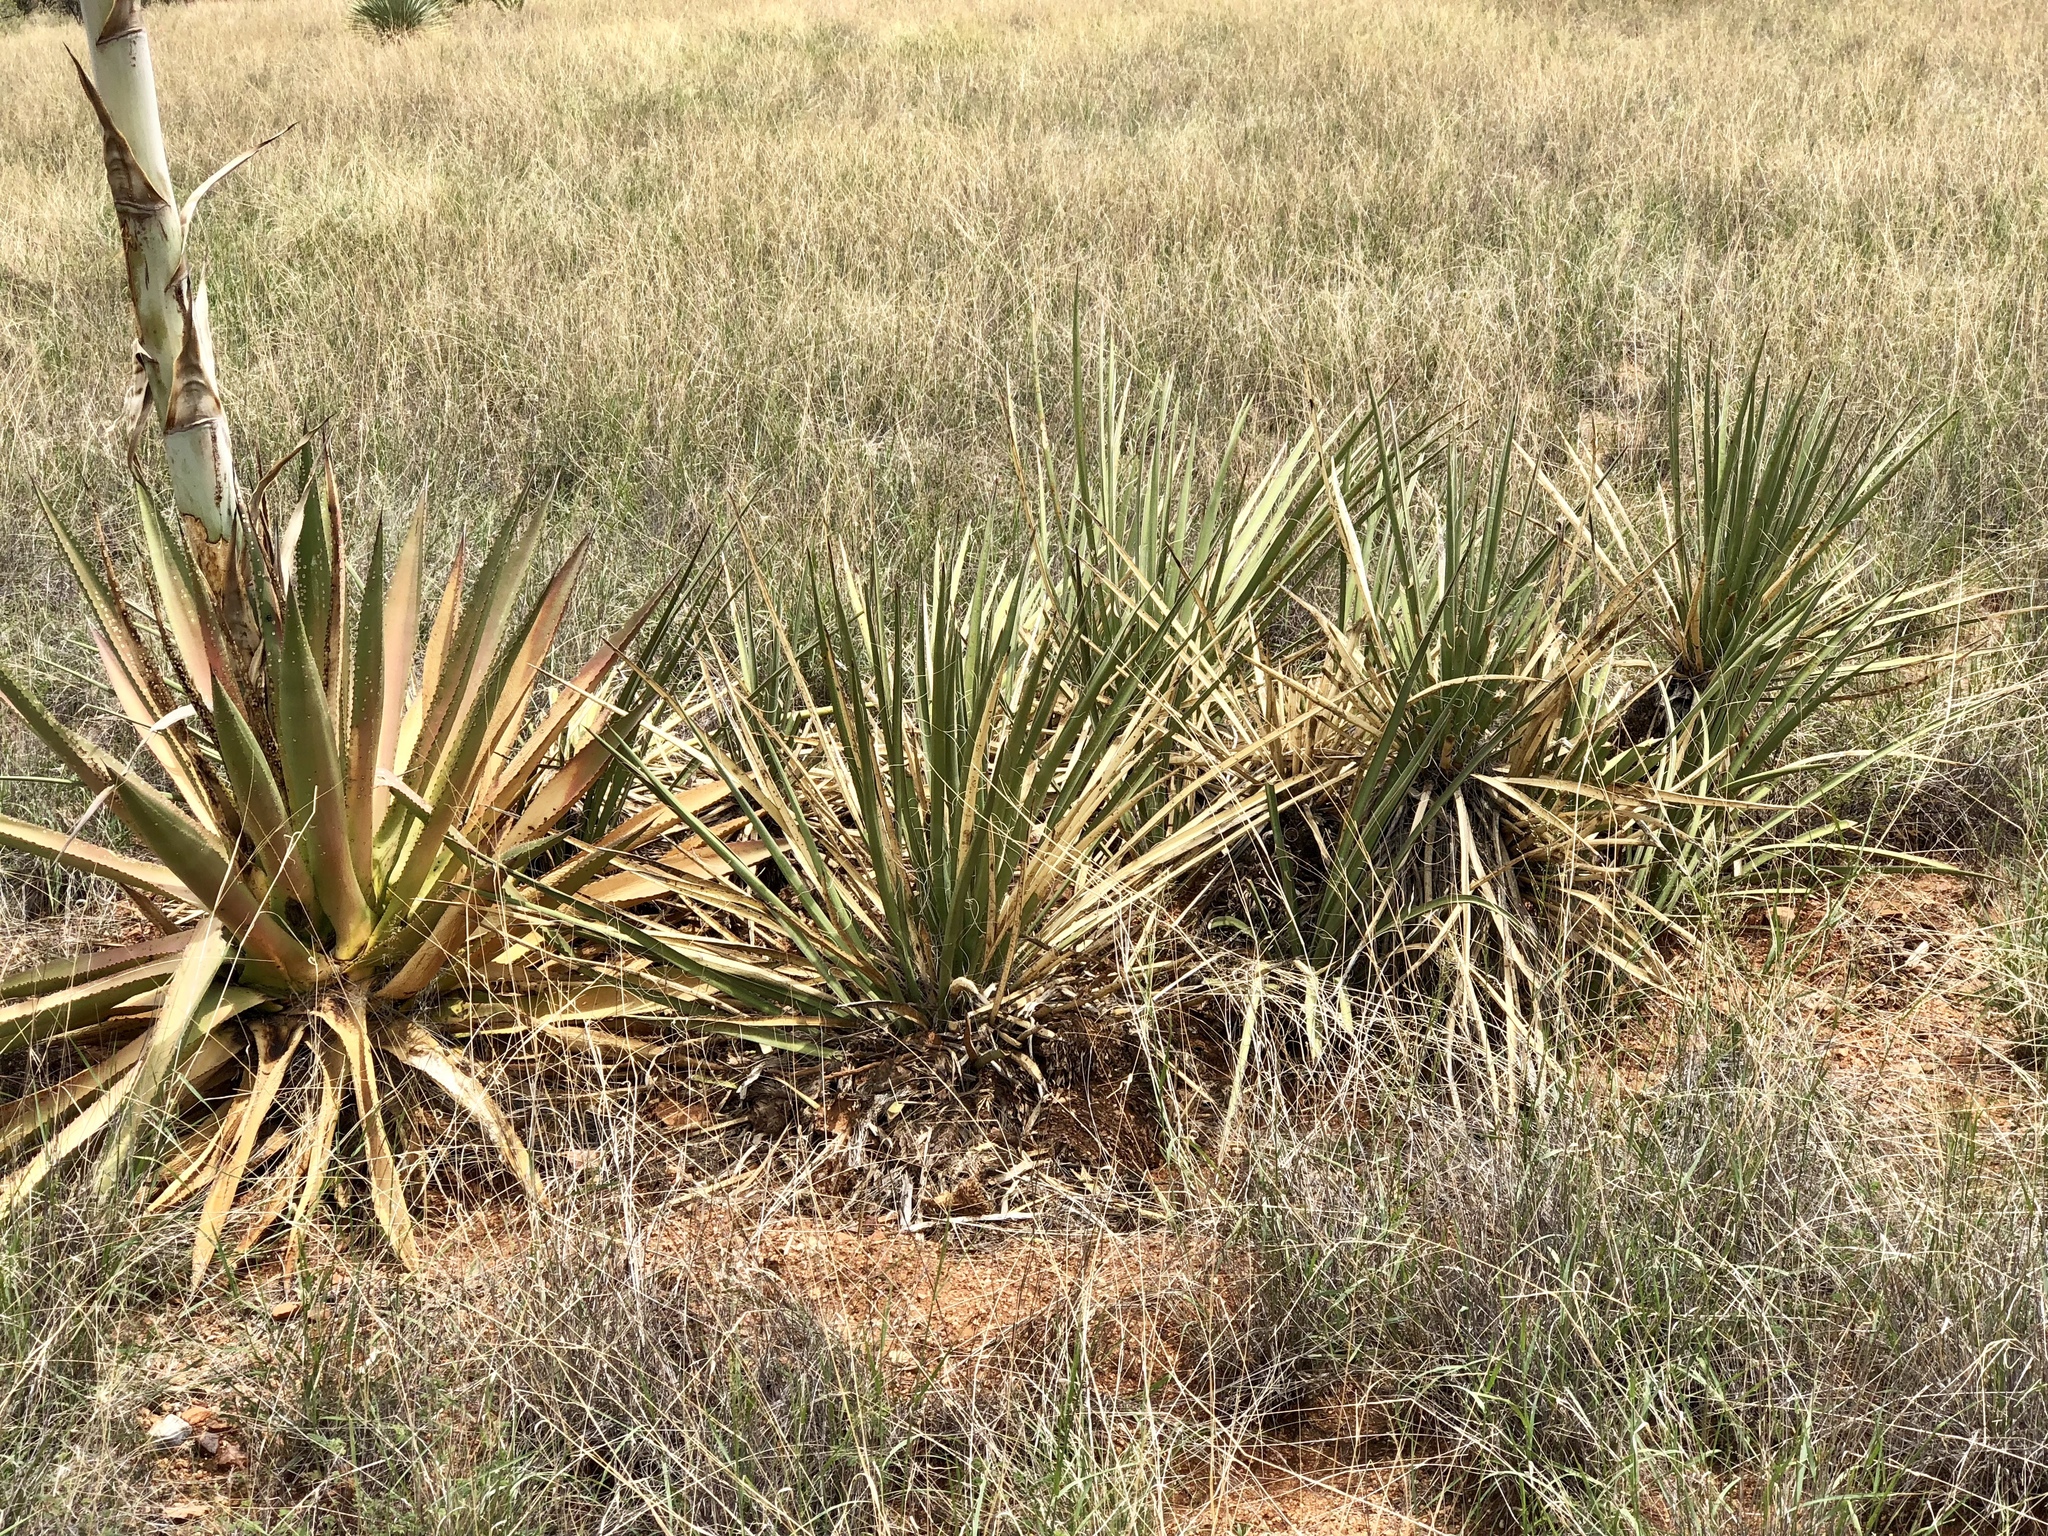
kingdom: Plantae
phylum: Tracheophyta
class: Liliopsida
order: Asparagales
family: Asparagaceae
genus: Yucca
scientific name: Yucca baccata
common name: Banana yucca
